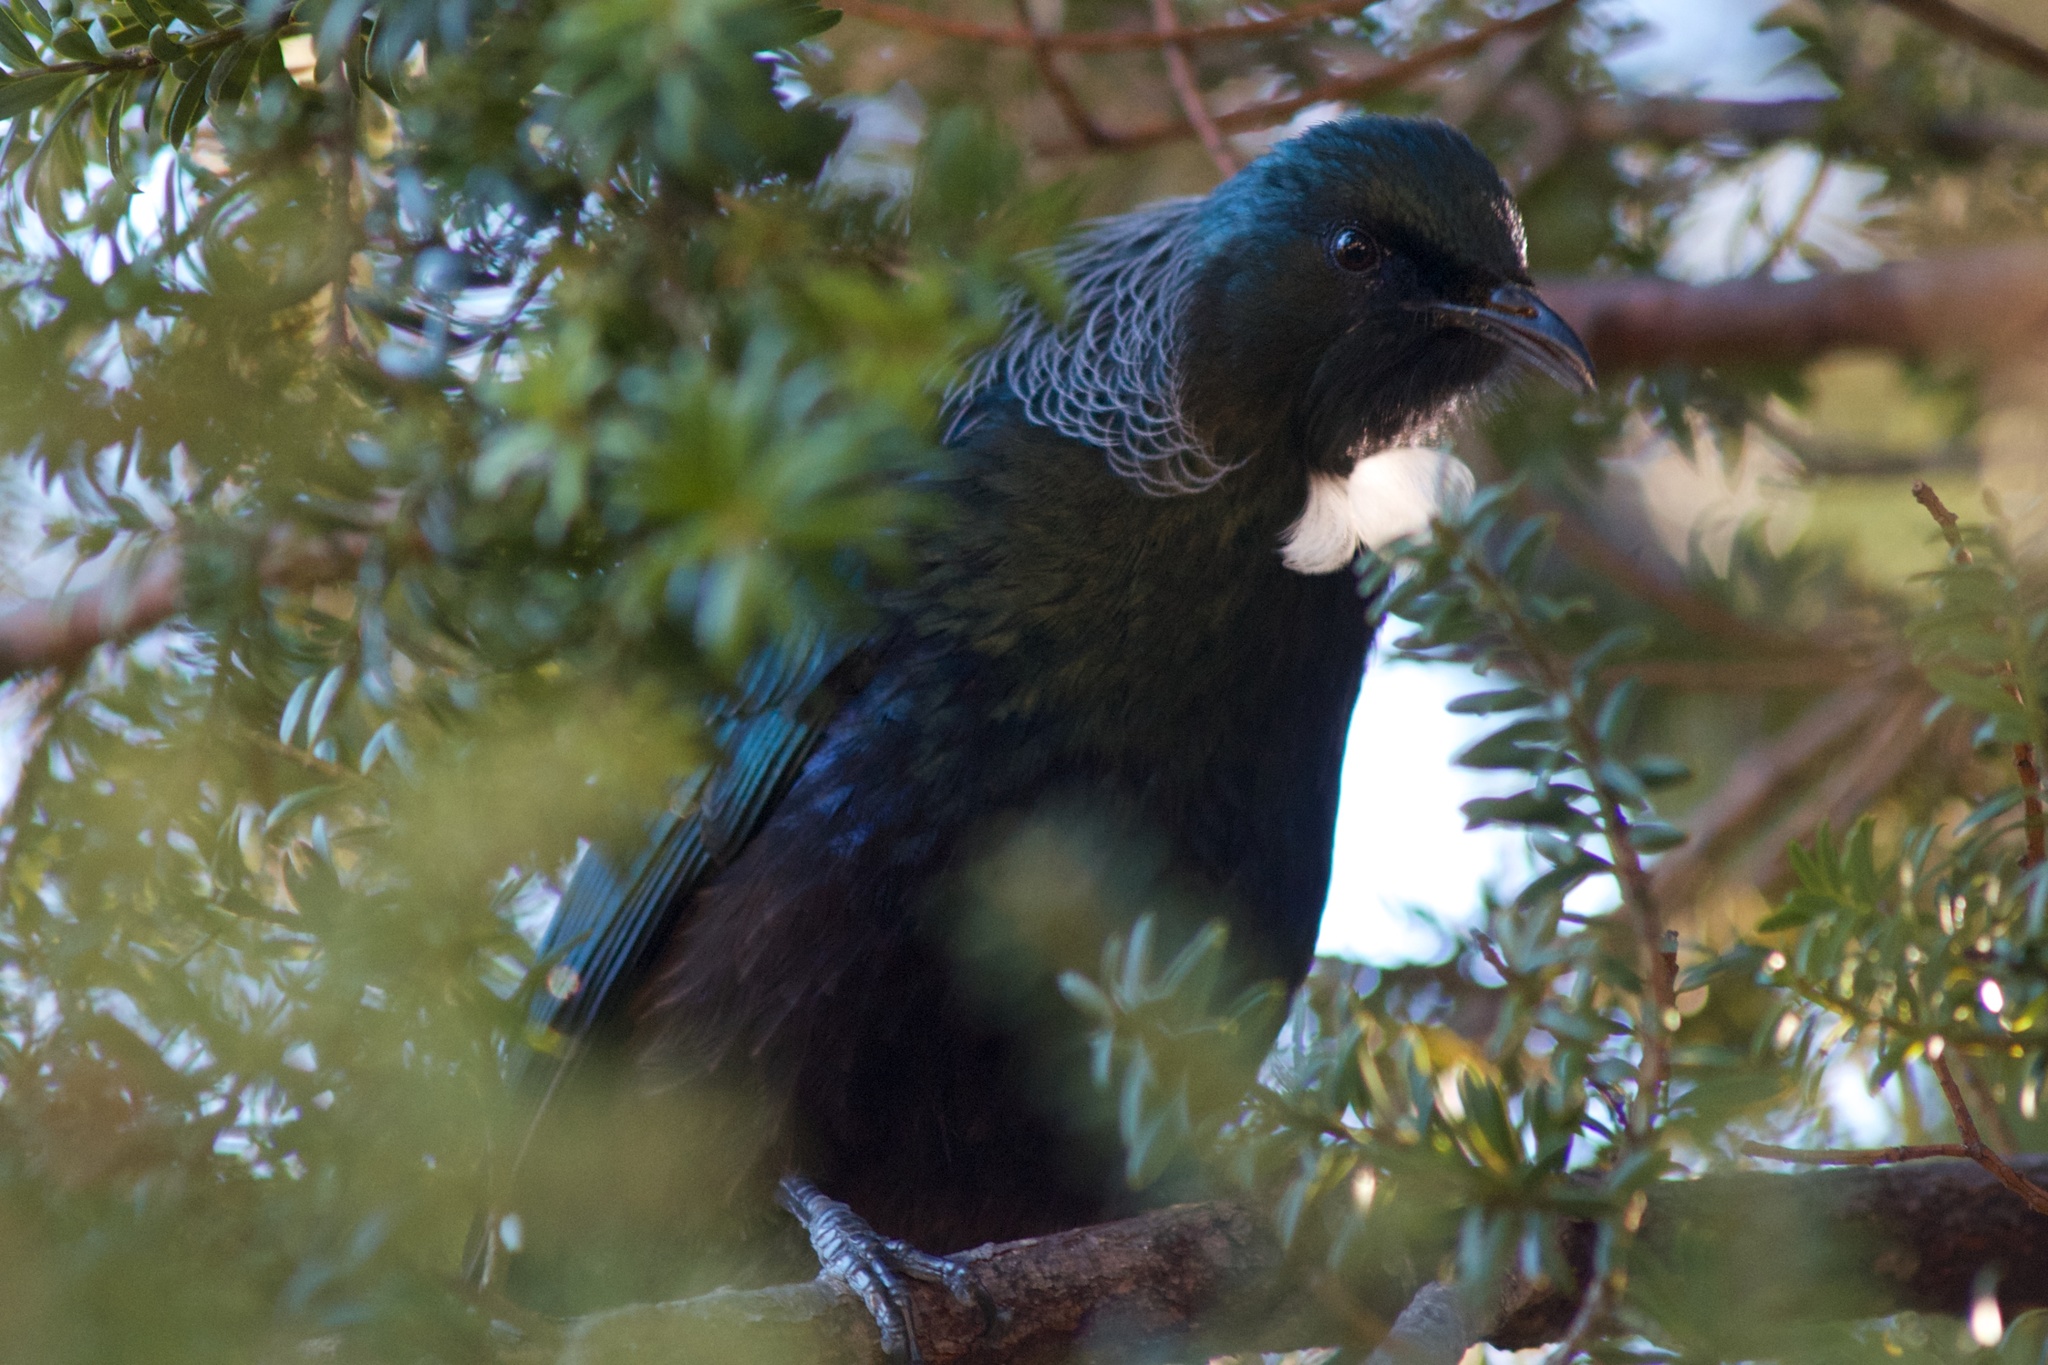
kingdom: Animalia
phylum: Chordata
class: Aves
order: Passeriformes
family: Meliphagidae
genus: Prosthemadera
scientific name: Prosthemadera novaeseelandiae
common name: Tui
